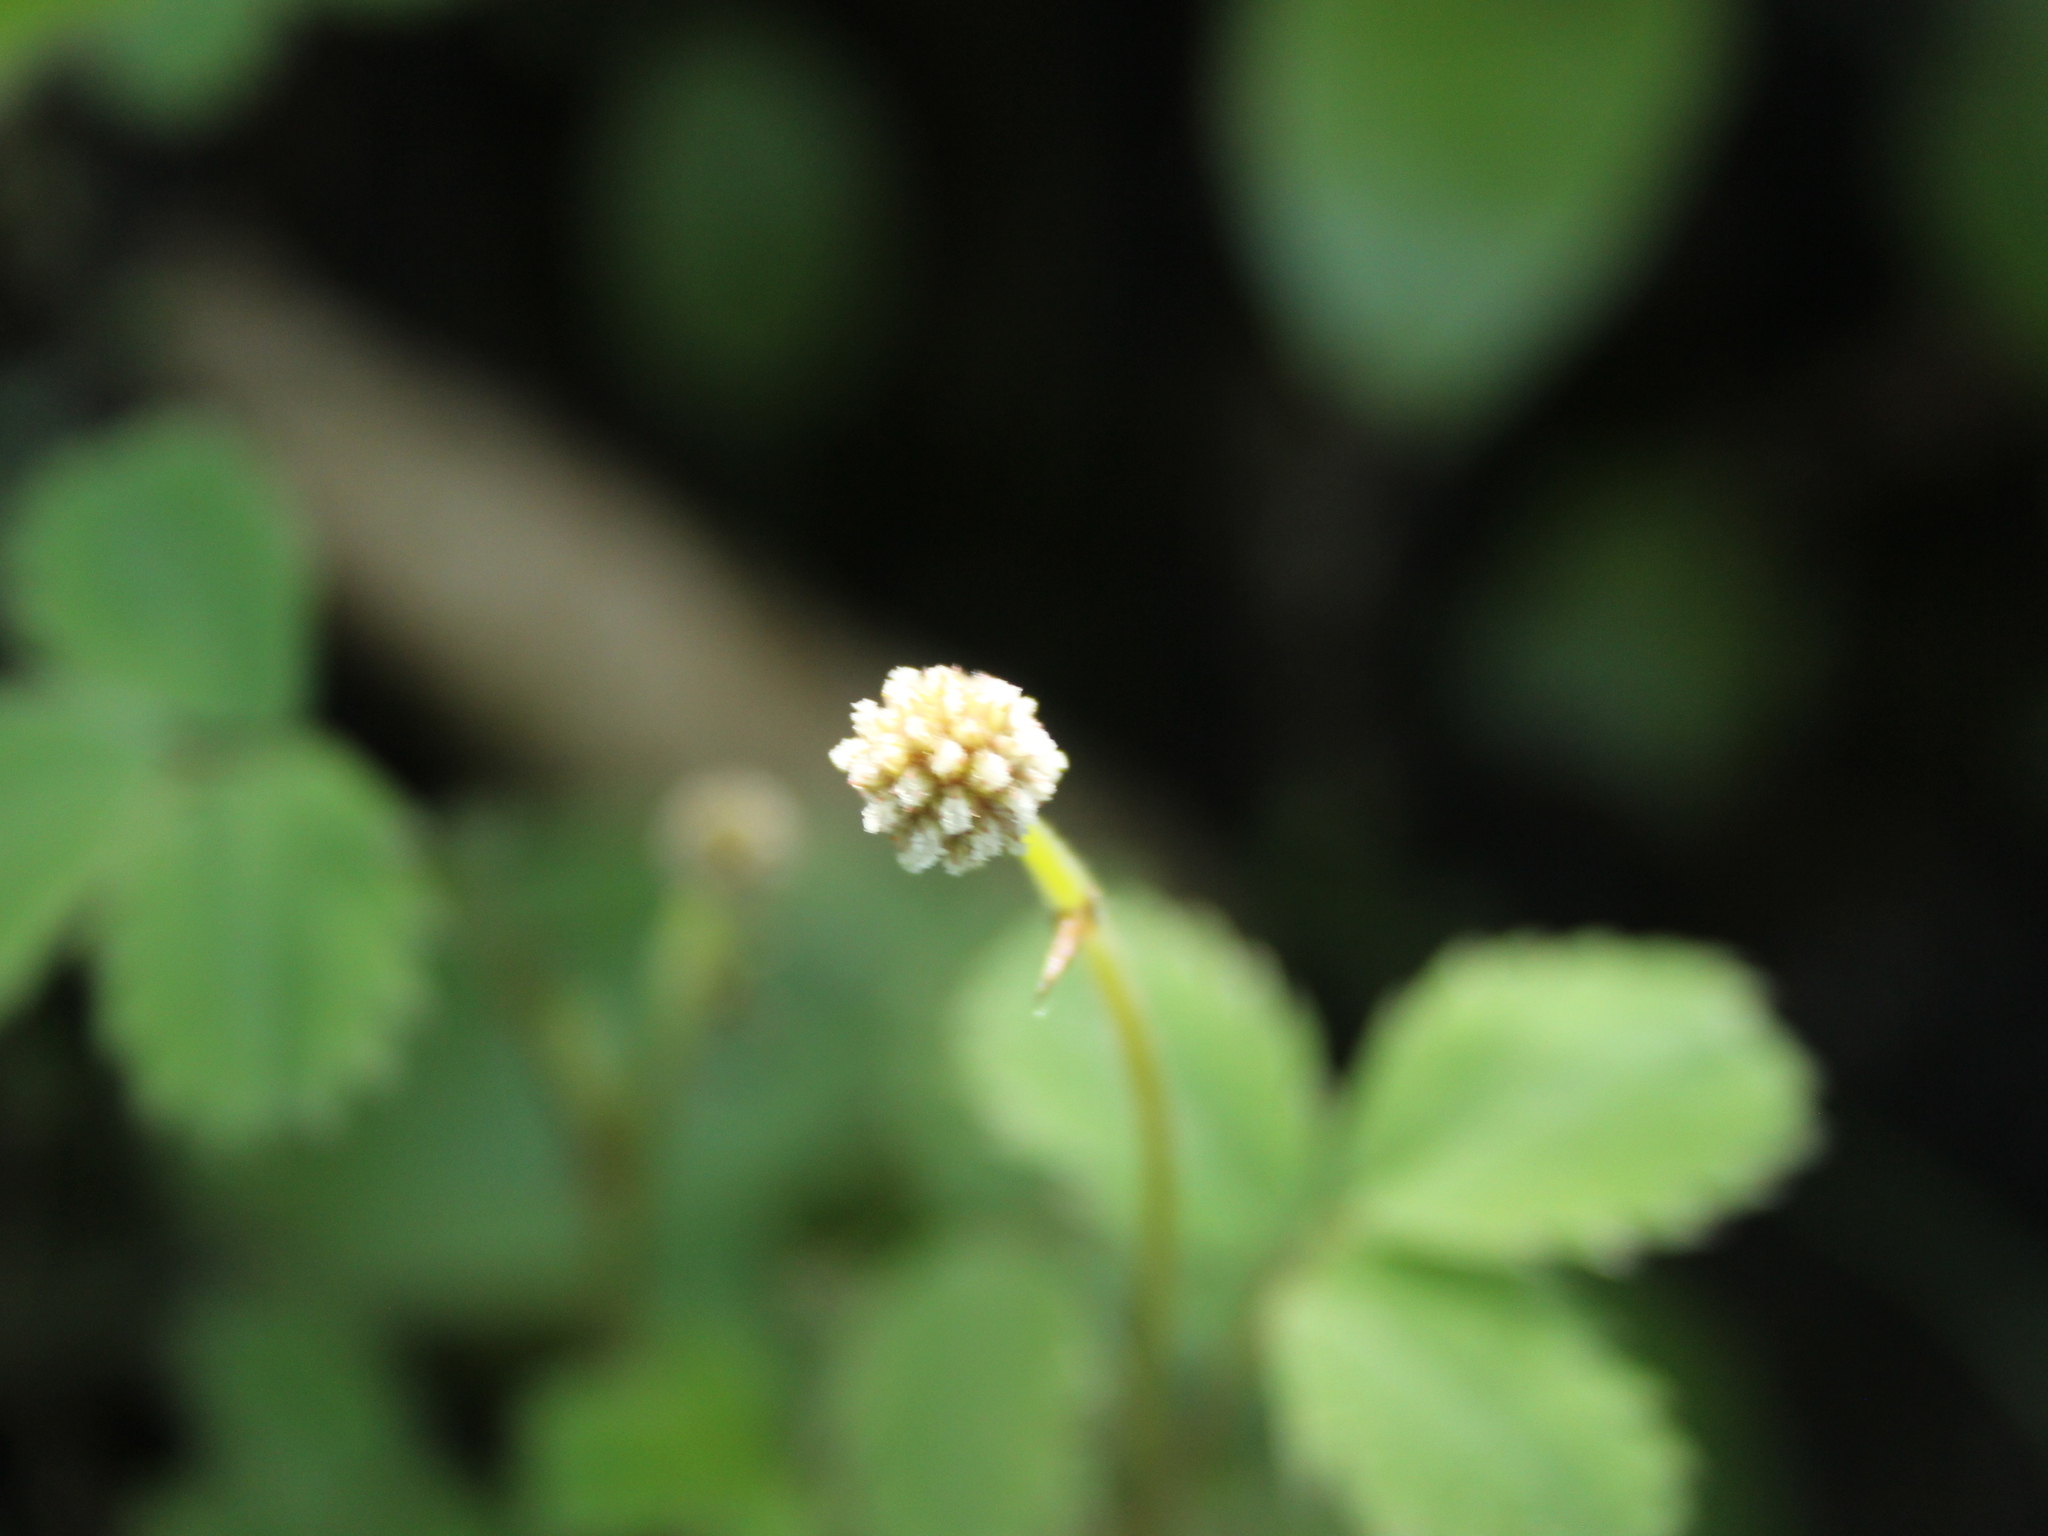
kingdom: Plantae
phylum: Tracheophyta
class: Magnoliopsida
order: Rosales
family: Rosaceae
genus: Acaena
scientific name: Acaena dumicola
